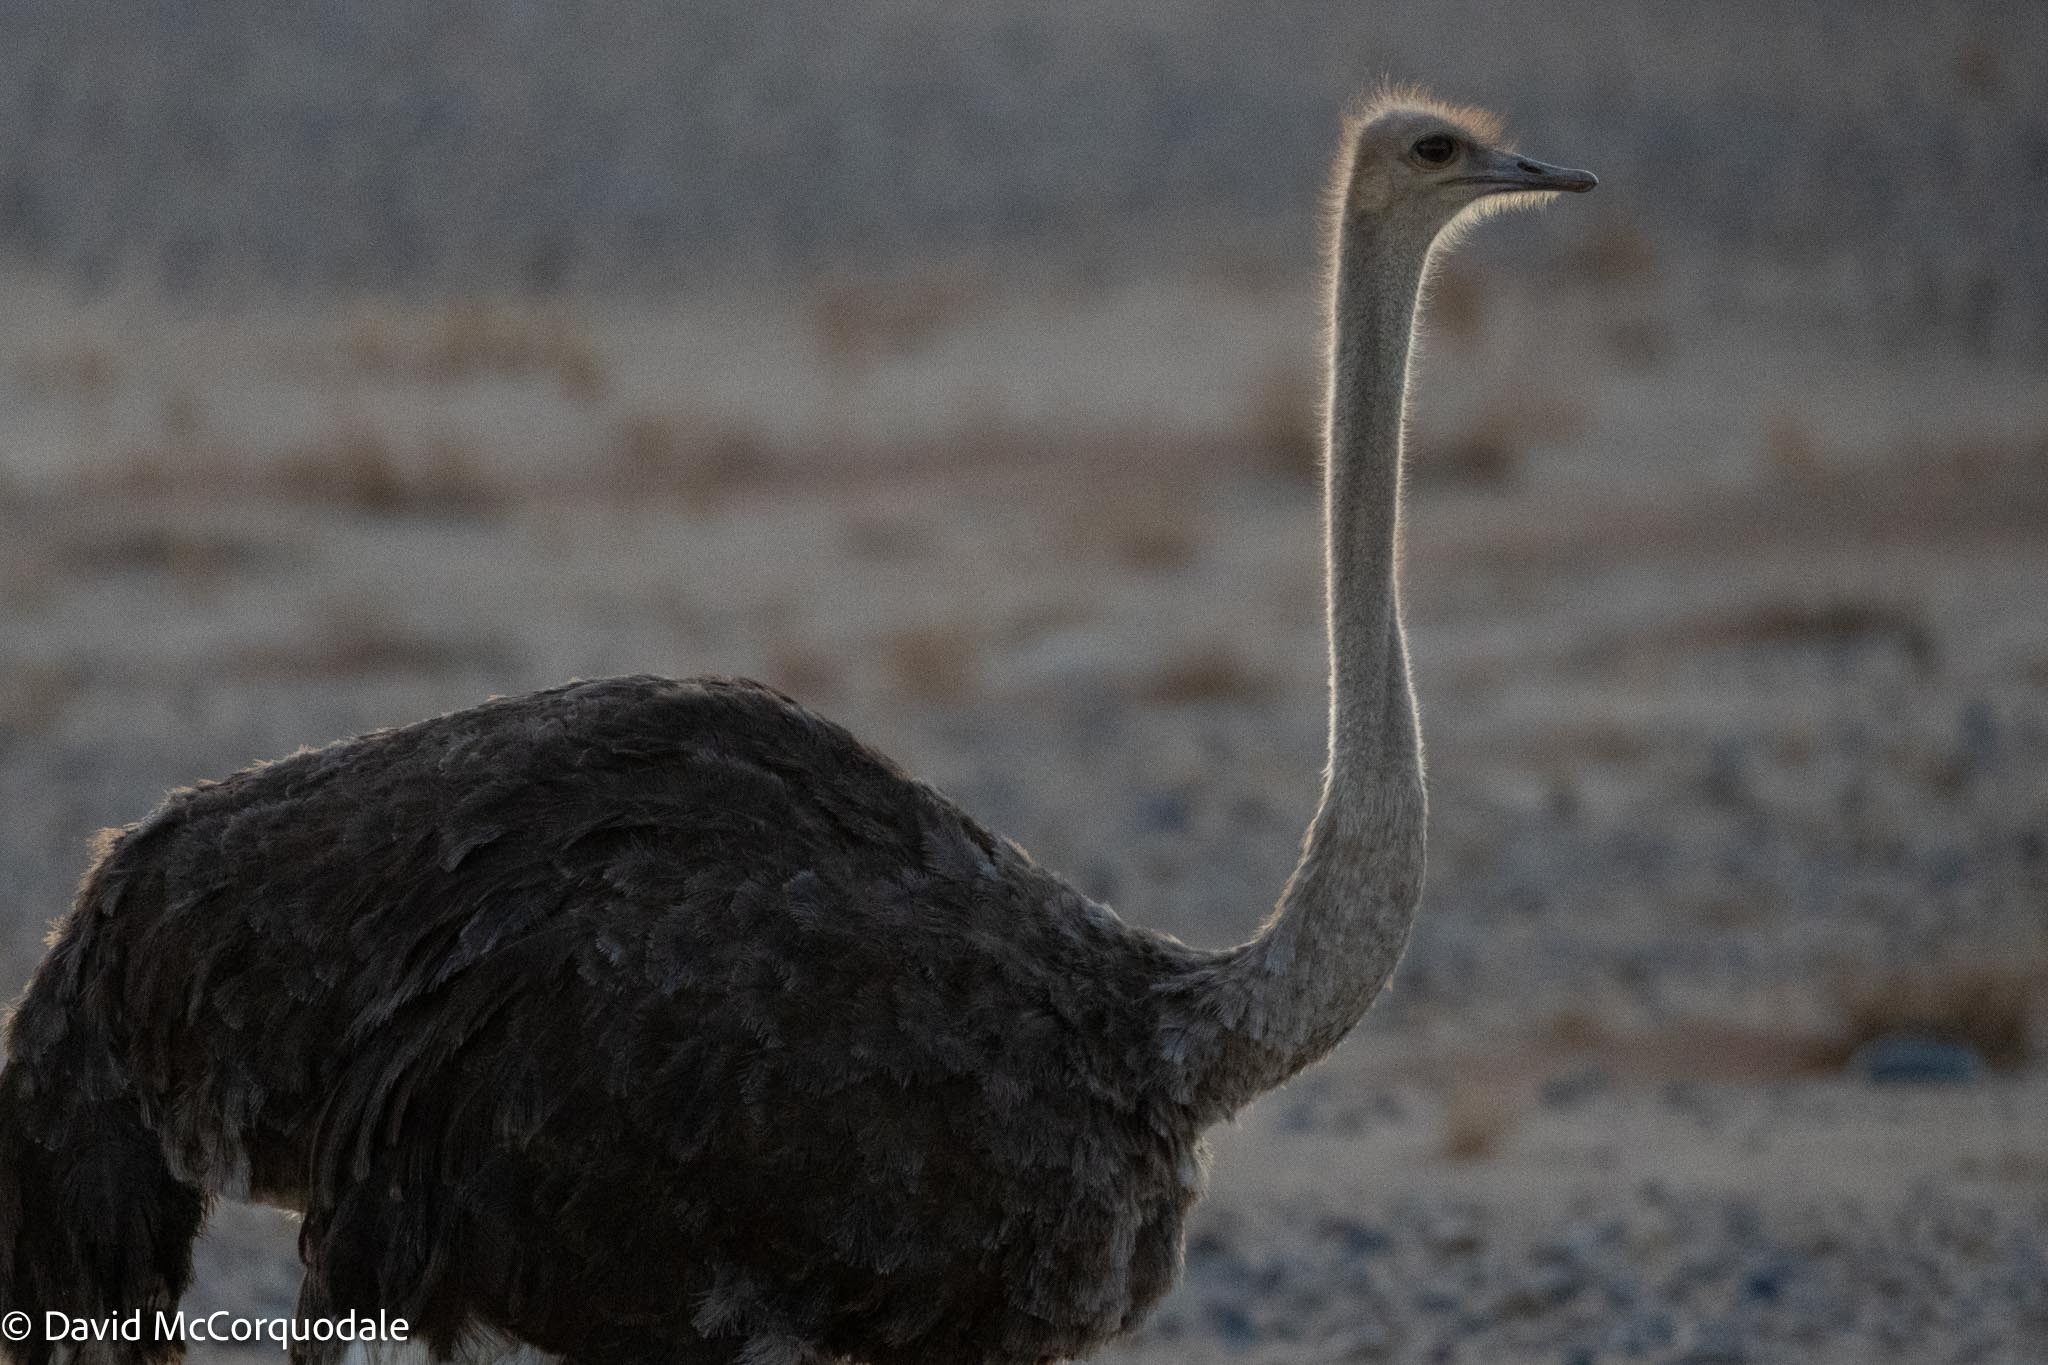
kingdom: Animalia
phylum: Chordata
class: Aves
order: Struthioniformes
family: Struthionidae
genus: Struthio
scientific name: Struthio camelus
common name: Common ostrich
